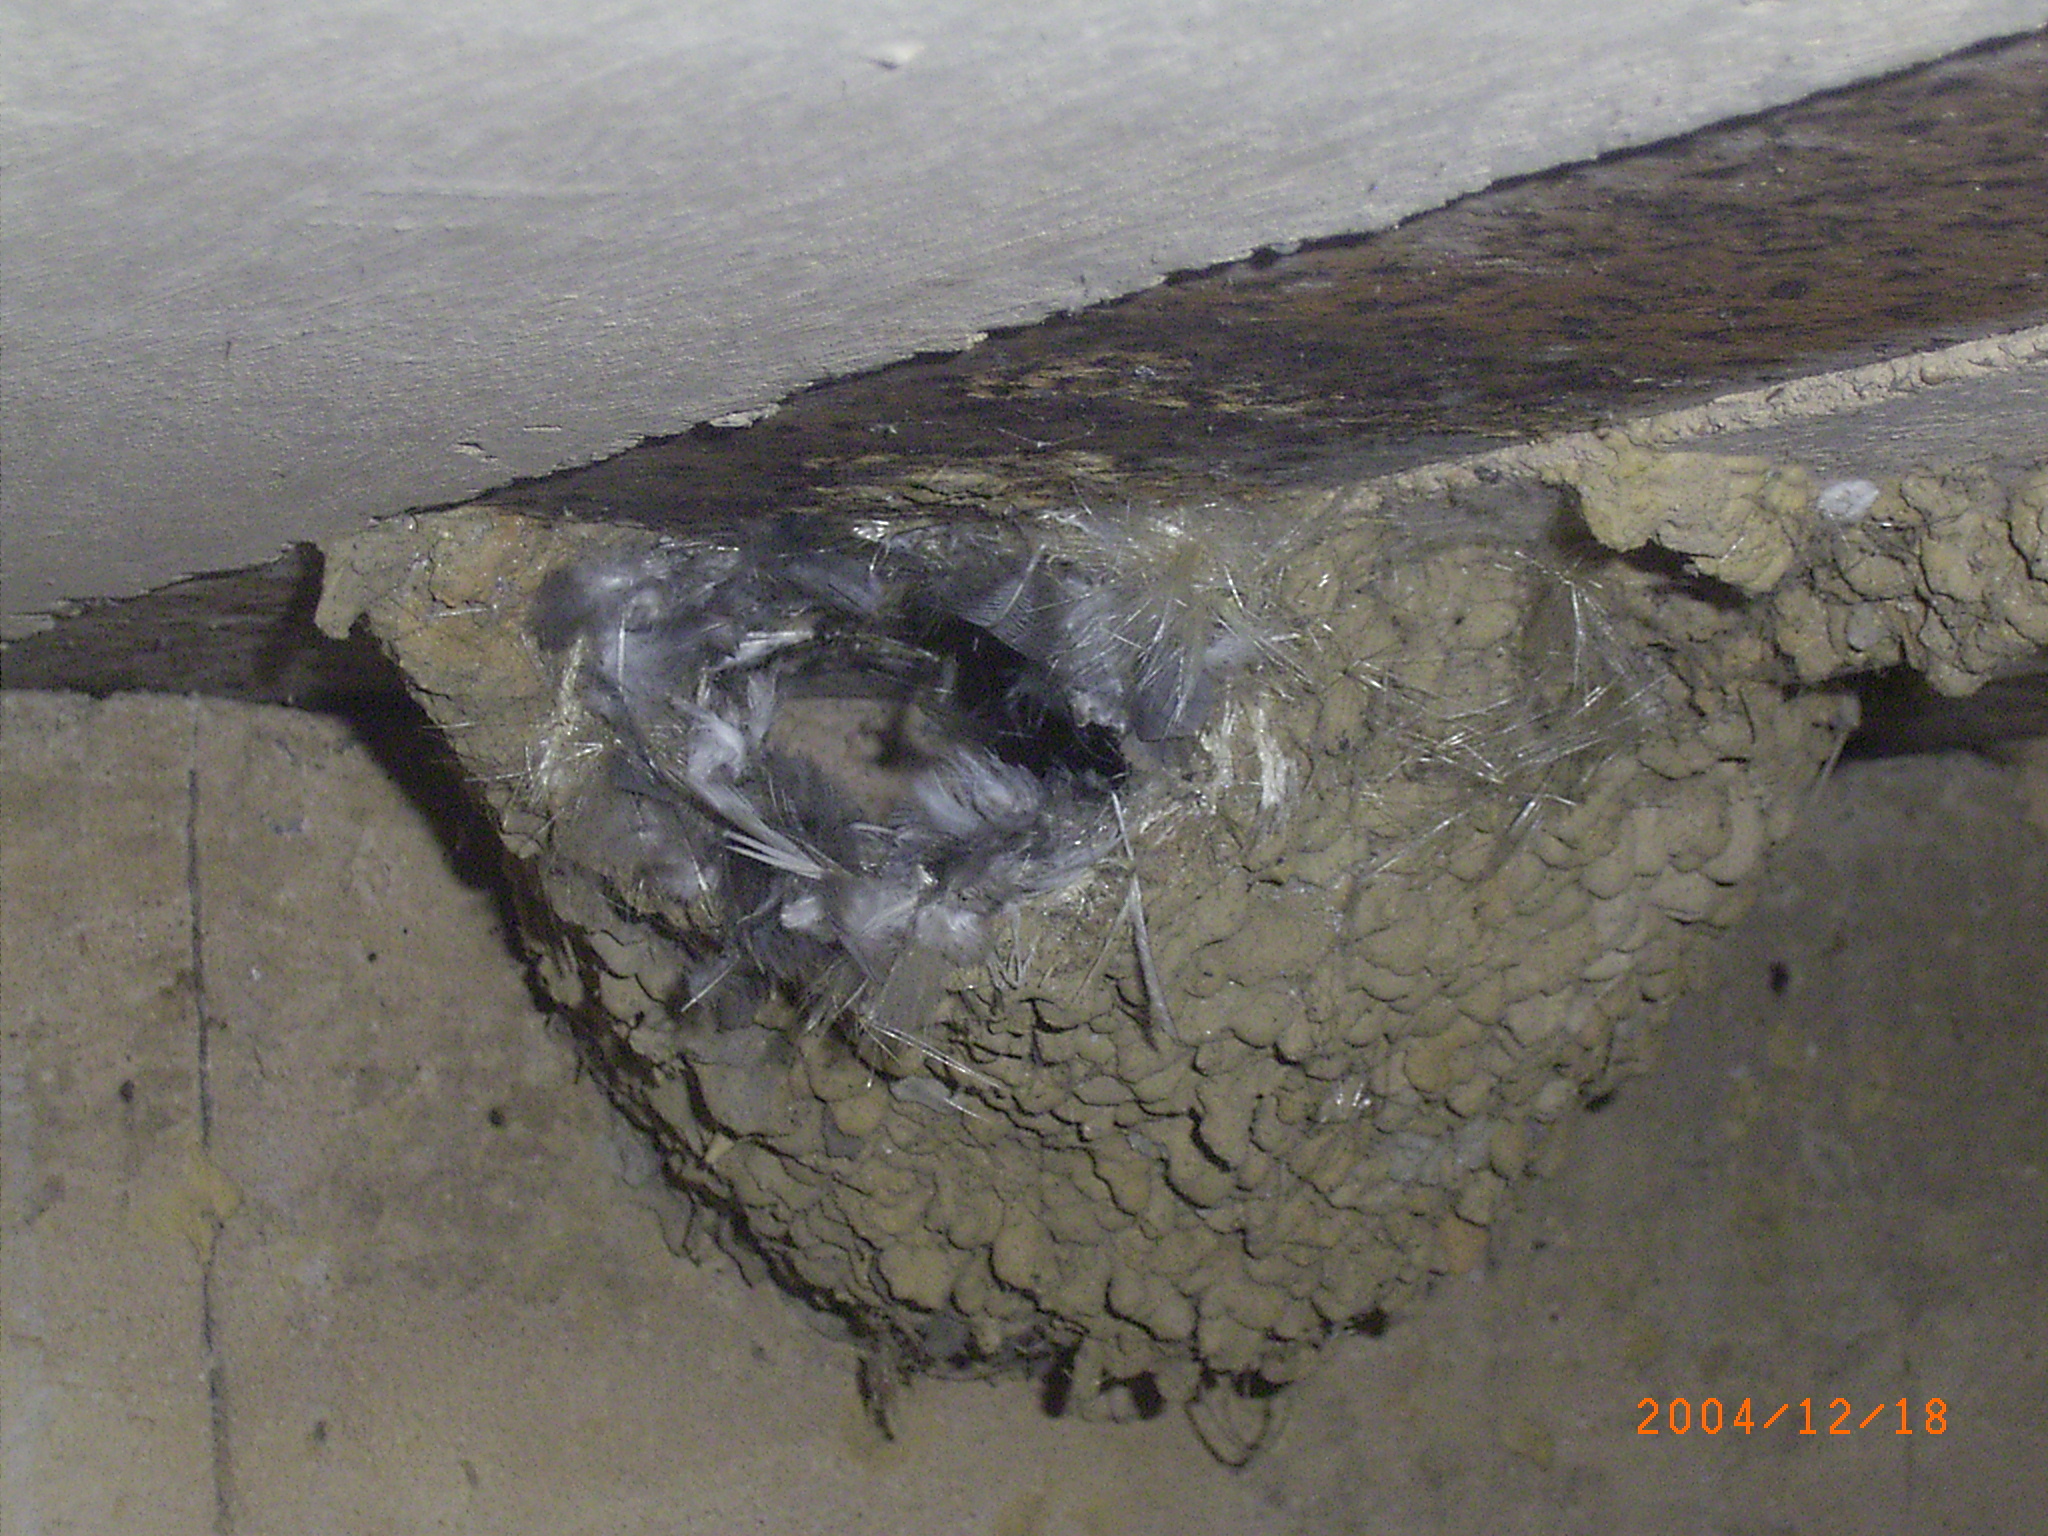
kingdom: Animalia
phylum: Chordata
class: Aves
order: Apodiformes
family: Apodidae
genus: Apus
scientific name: Apus caffer
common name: White-rumped swift
